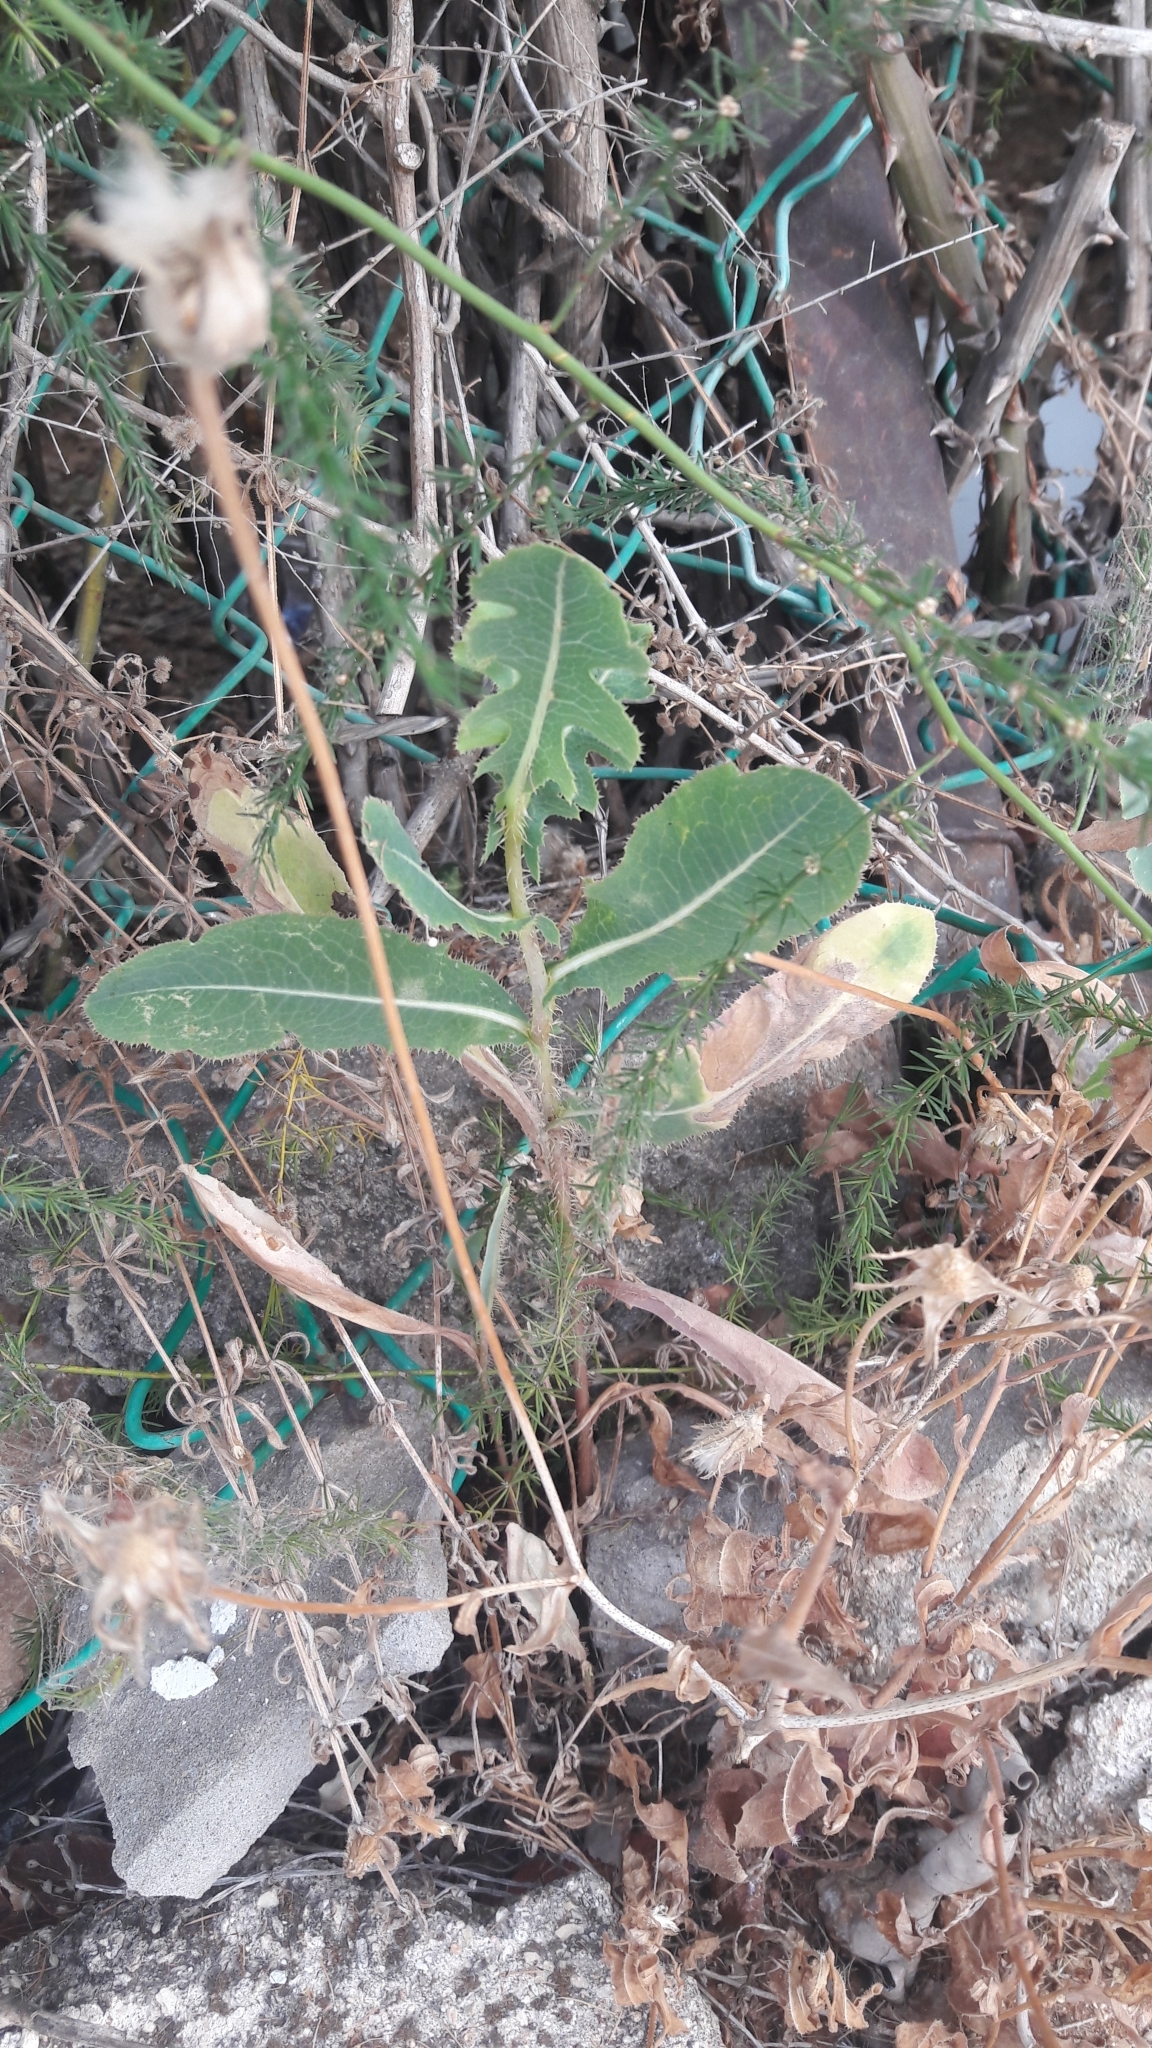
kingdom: Plantae
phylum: Tracheophyta
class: Magnoliopsida
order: Asterales
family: Asteraceae
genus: Lactuca
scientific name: Lactuca serriola
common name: Prickly lettuce
